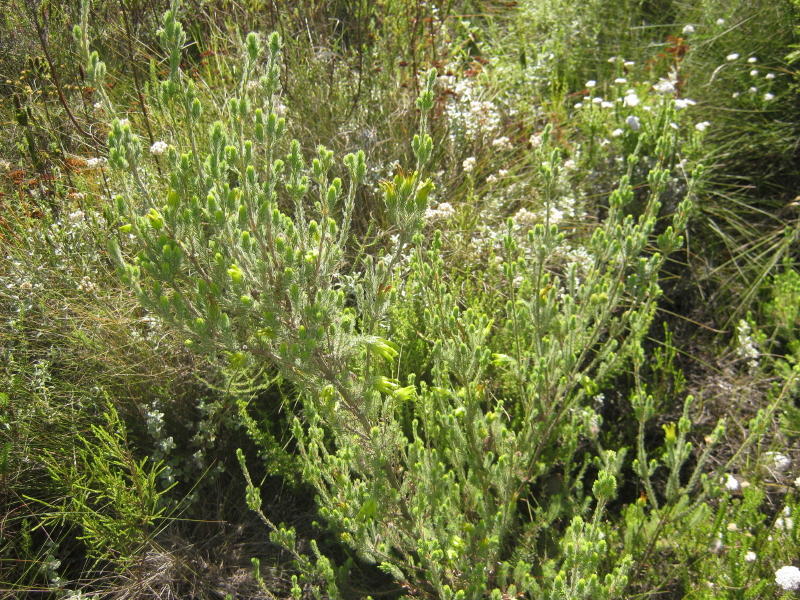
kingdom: Plantae
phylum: Tracheophyta
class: Magnoliopsida
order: Ericales
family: Ericaceae
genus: Erica
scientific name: Erica unicolor
